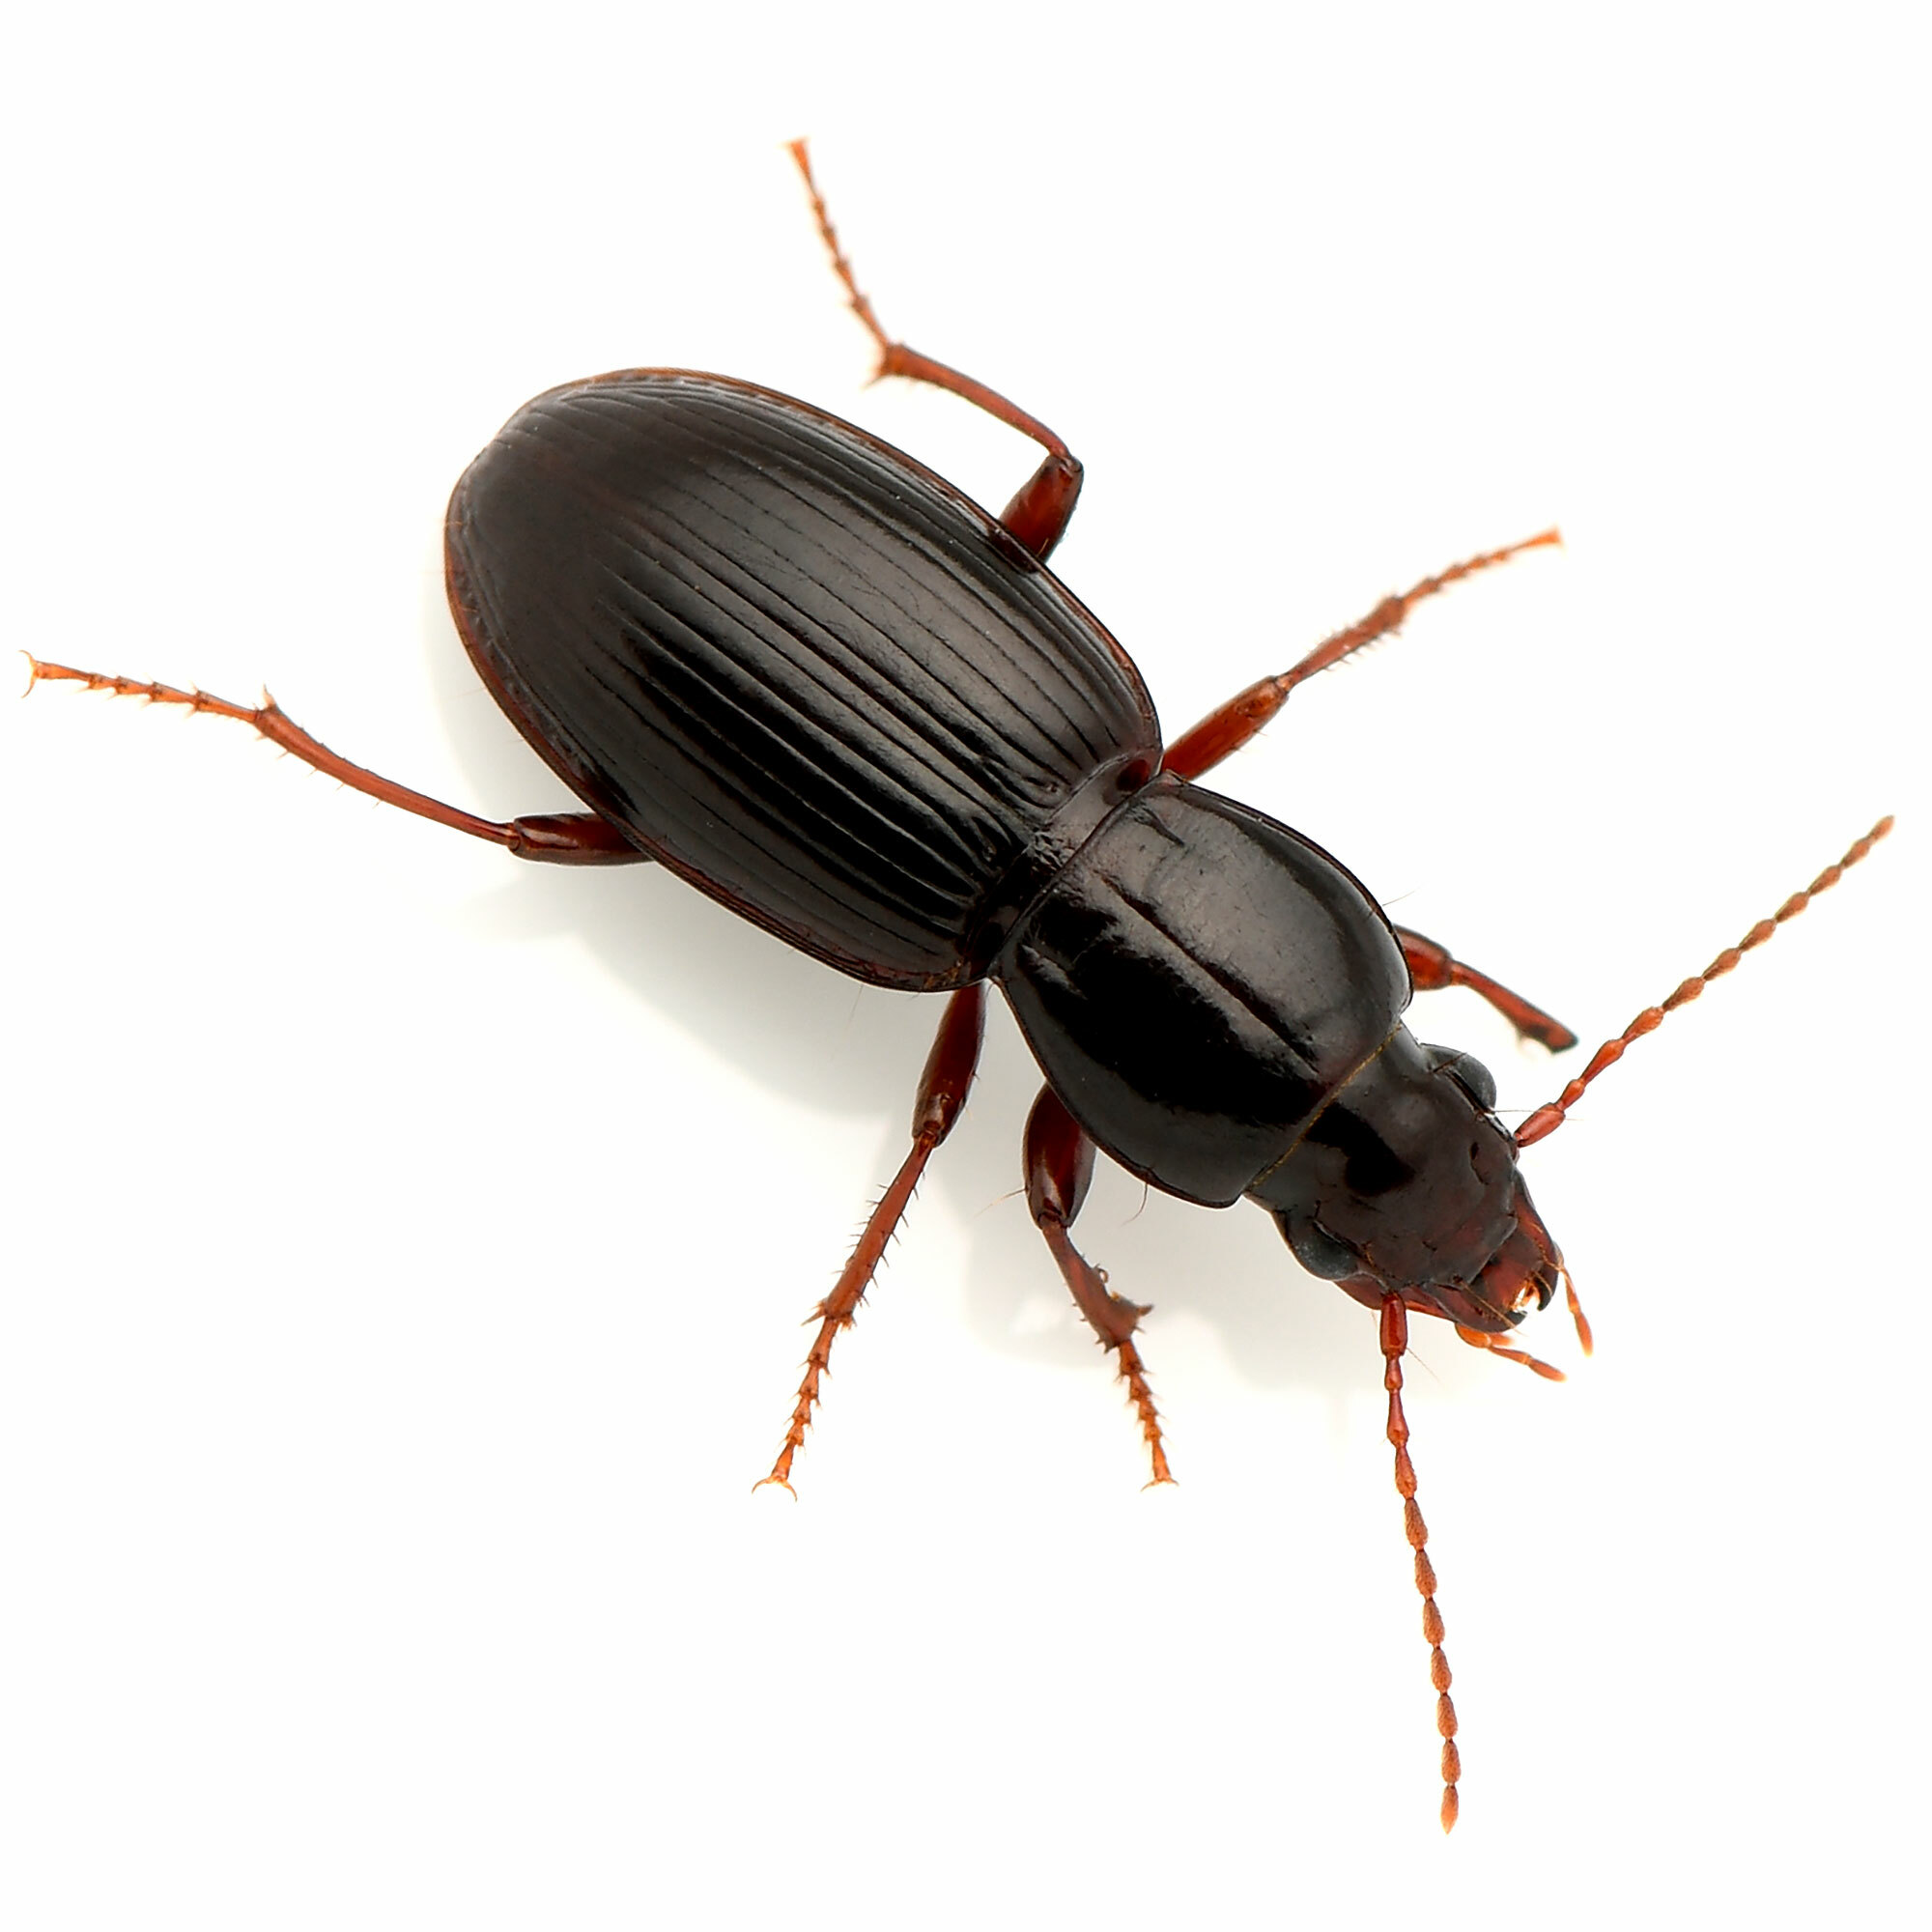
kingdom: Animalia
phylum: Arthropoda
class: Insecta
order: Coleoptera
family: Carabidae
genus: Pterostichus
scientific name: Pterostichus pumilus
